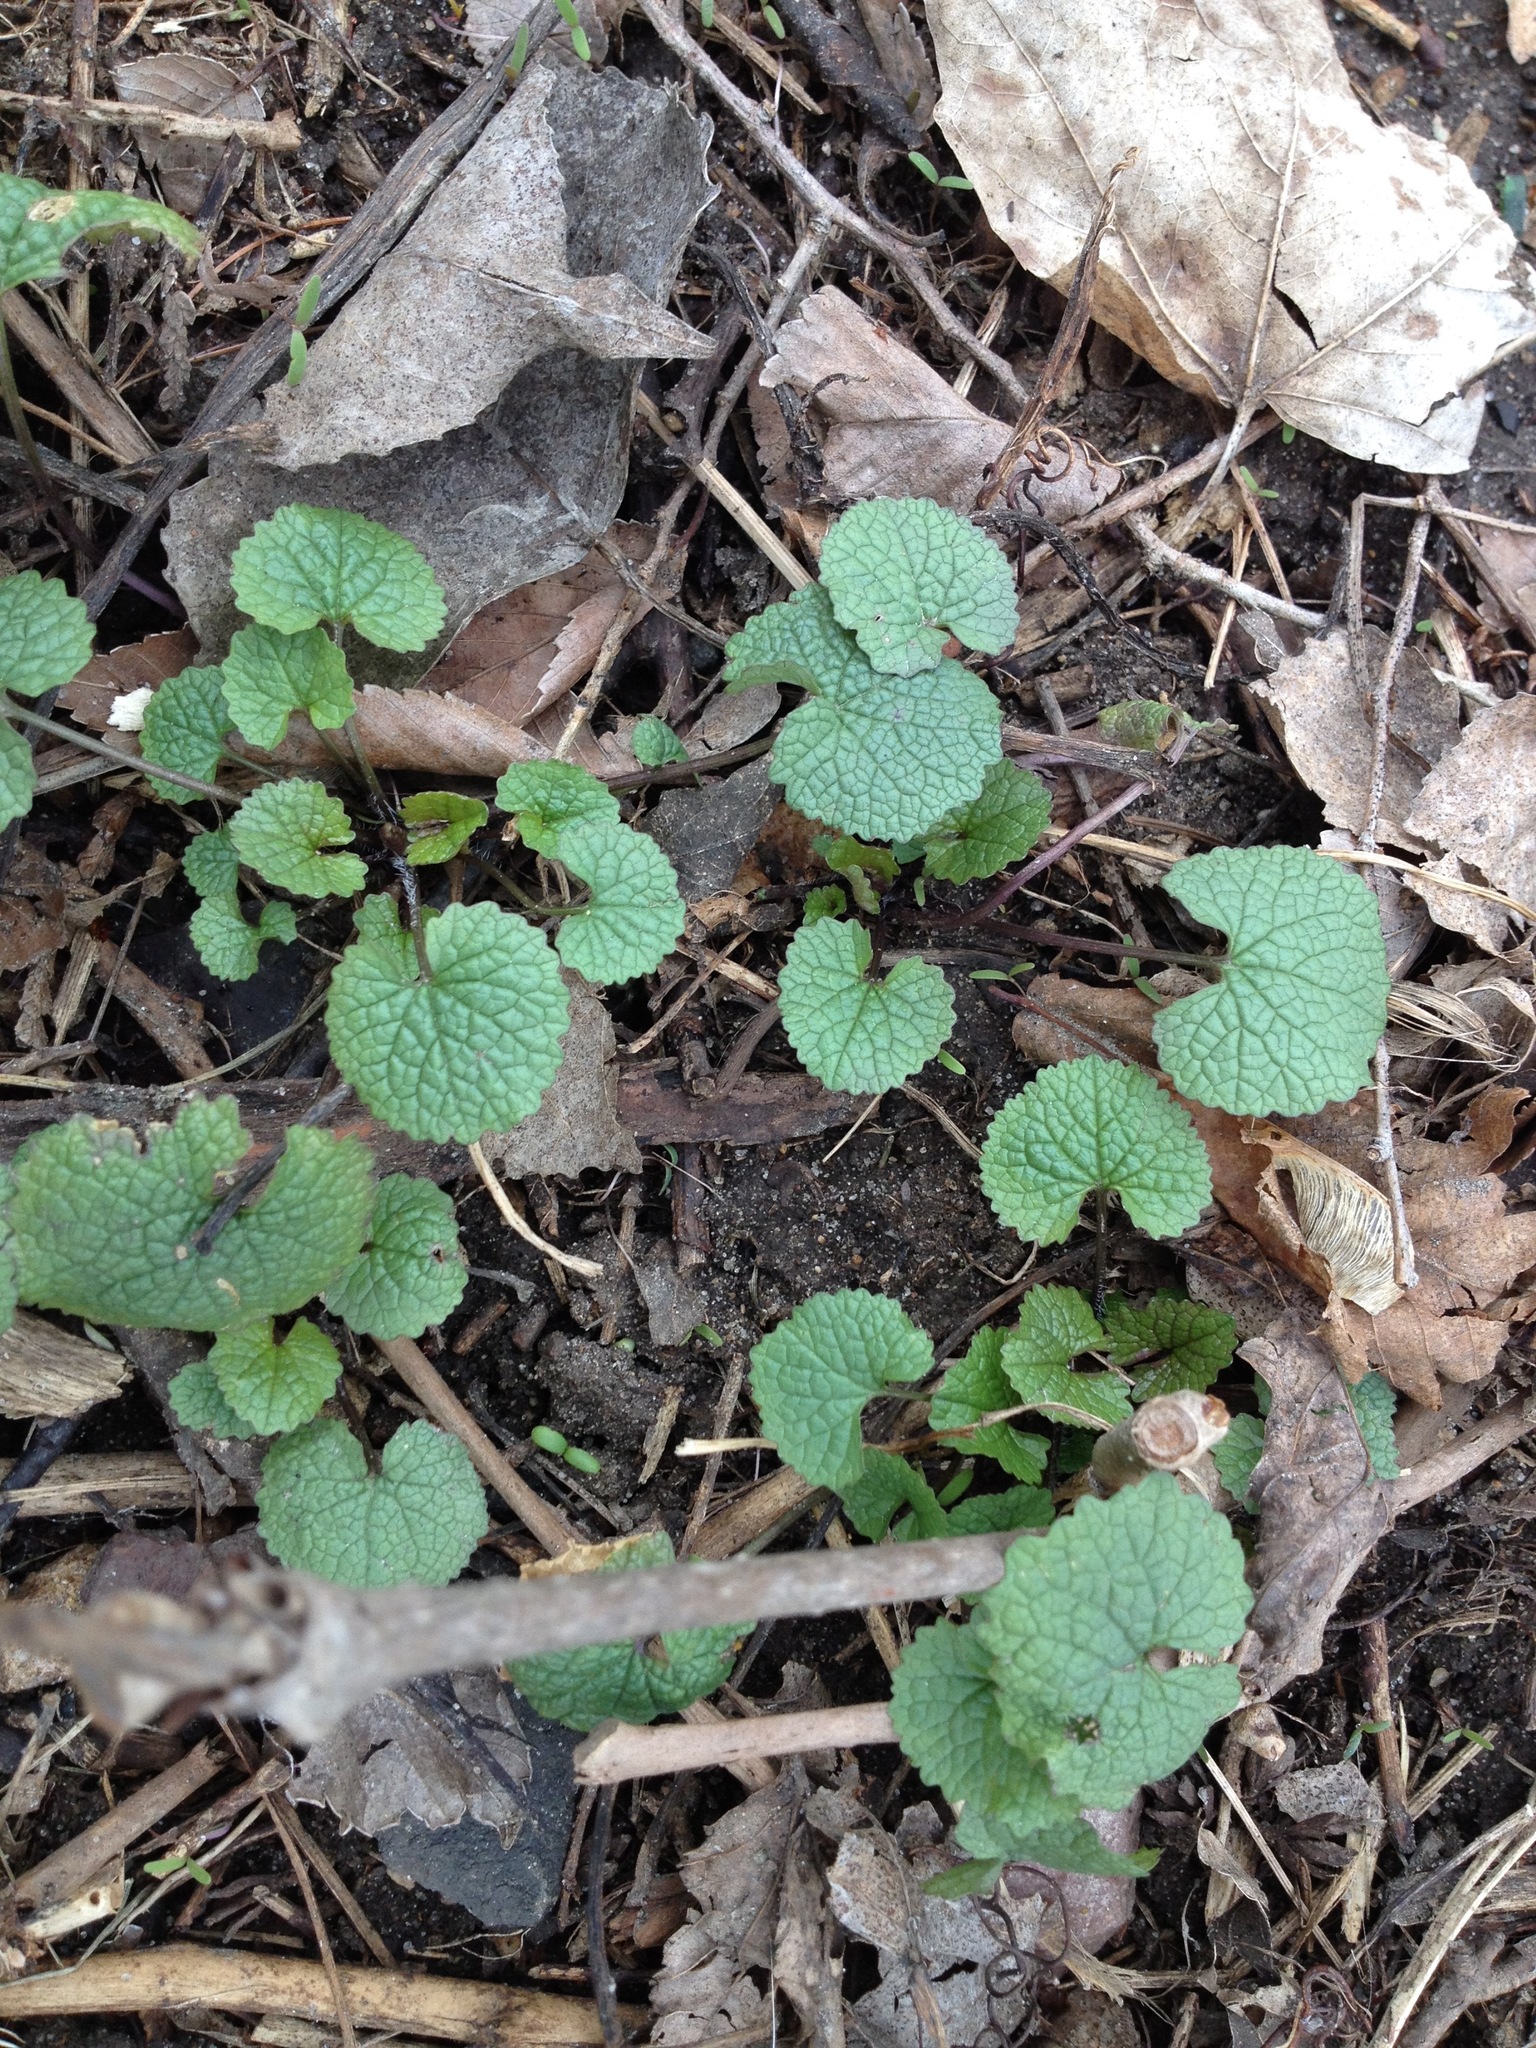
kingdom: Plantae
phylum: Tracheophyta
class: Magnoliopsida
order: Brassicales
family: Brassicaceae
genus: Alliaria
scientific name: Alliaria petiolata
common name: Garlic mustard
